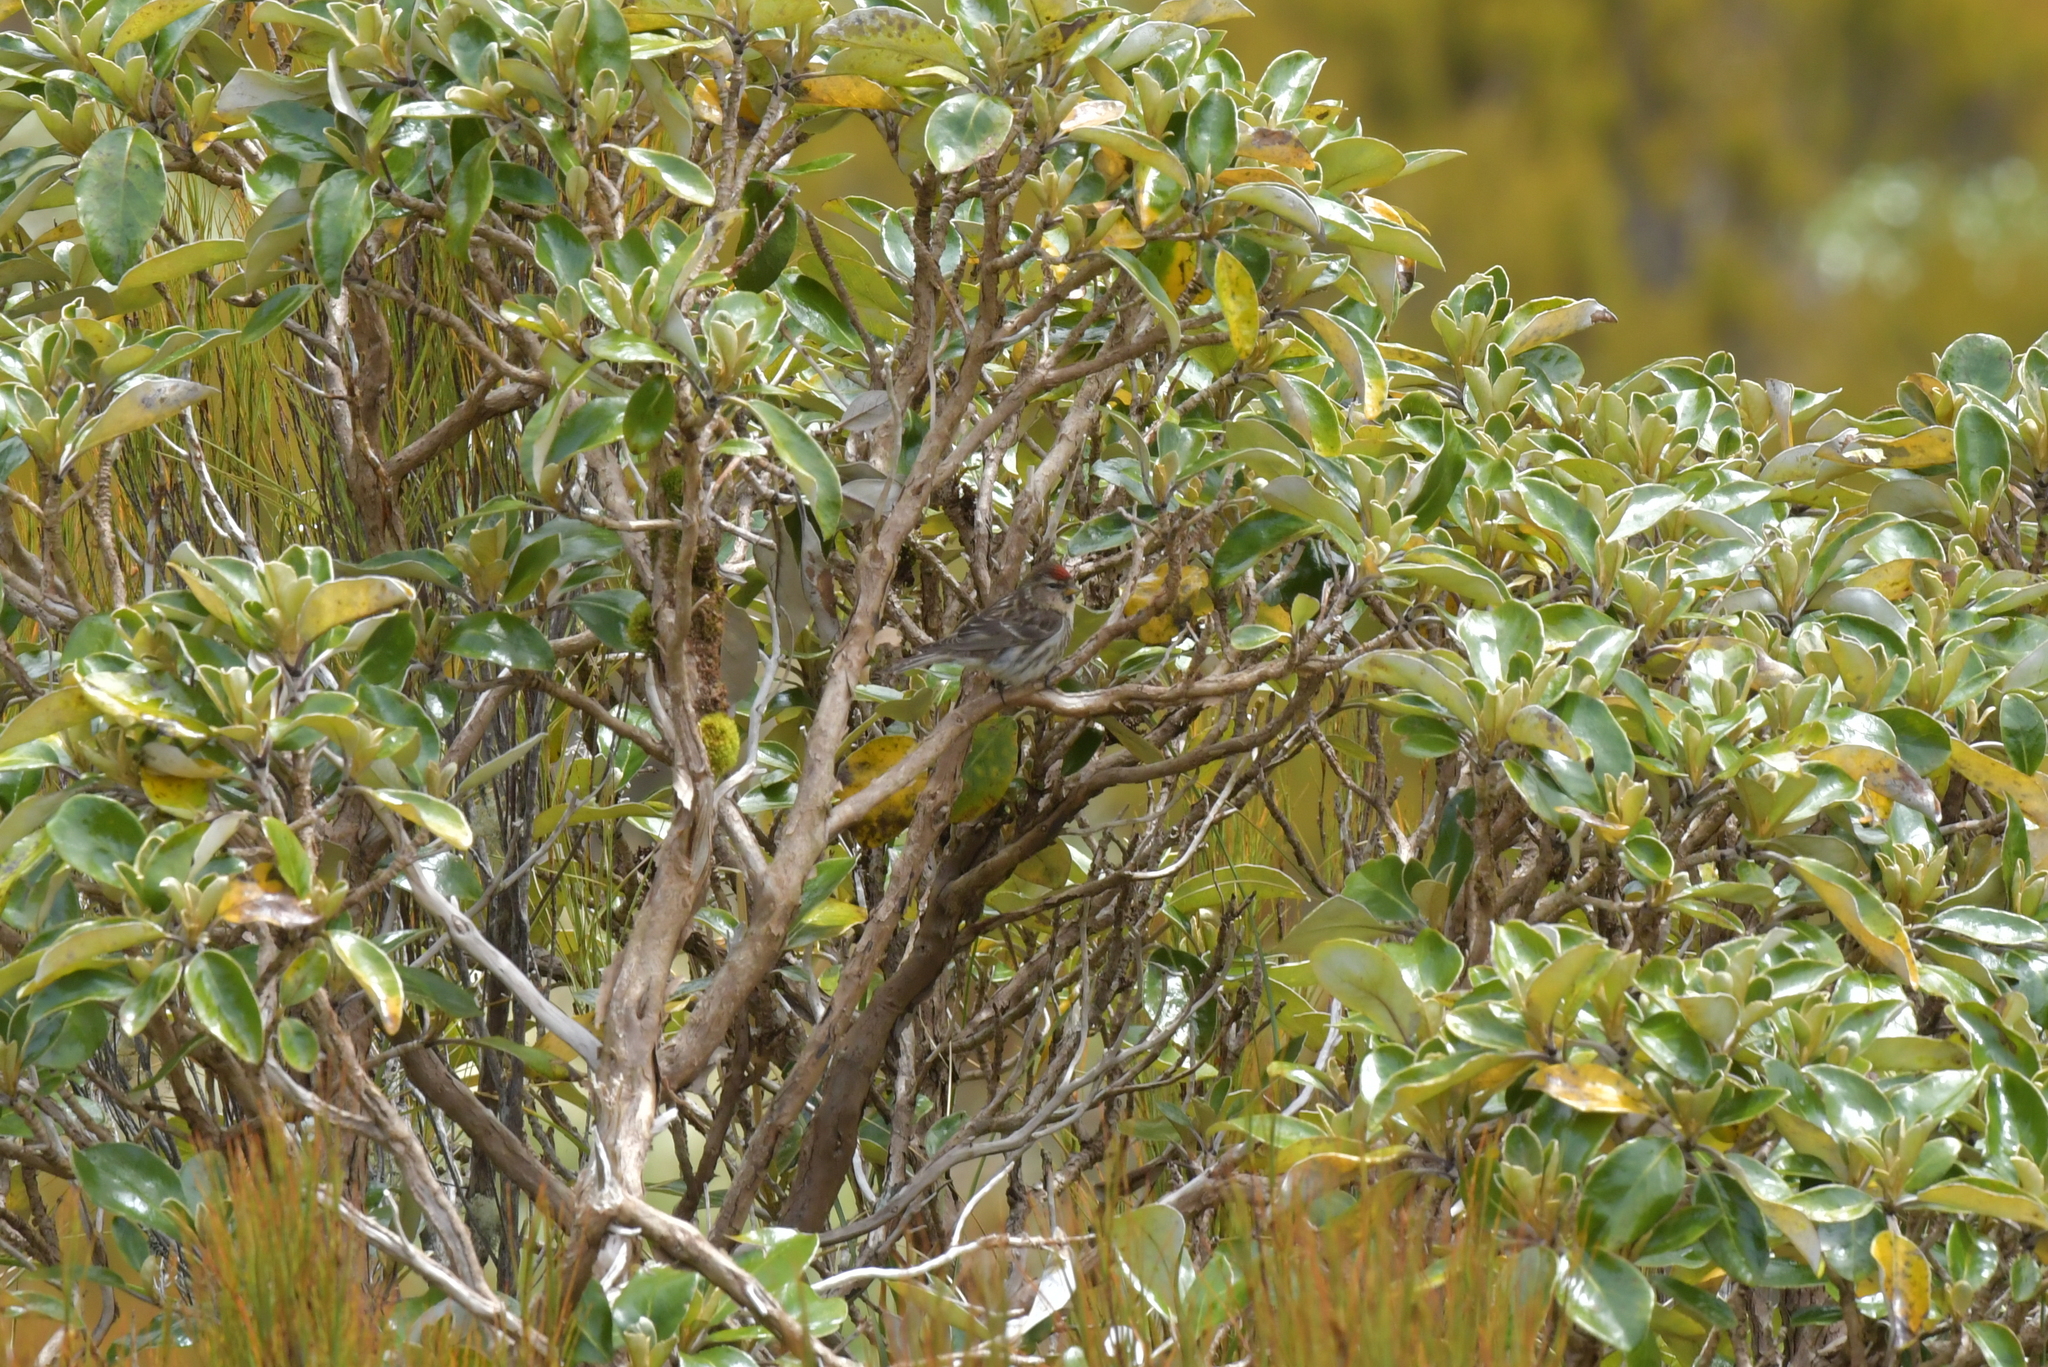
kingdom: Animalia
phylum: Chordata
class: Aves
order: Passeriformes
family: Fringillidae
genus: Acanthis
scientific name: Acanthis flammea
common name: Common redpoll
